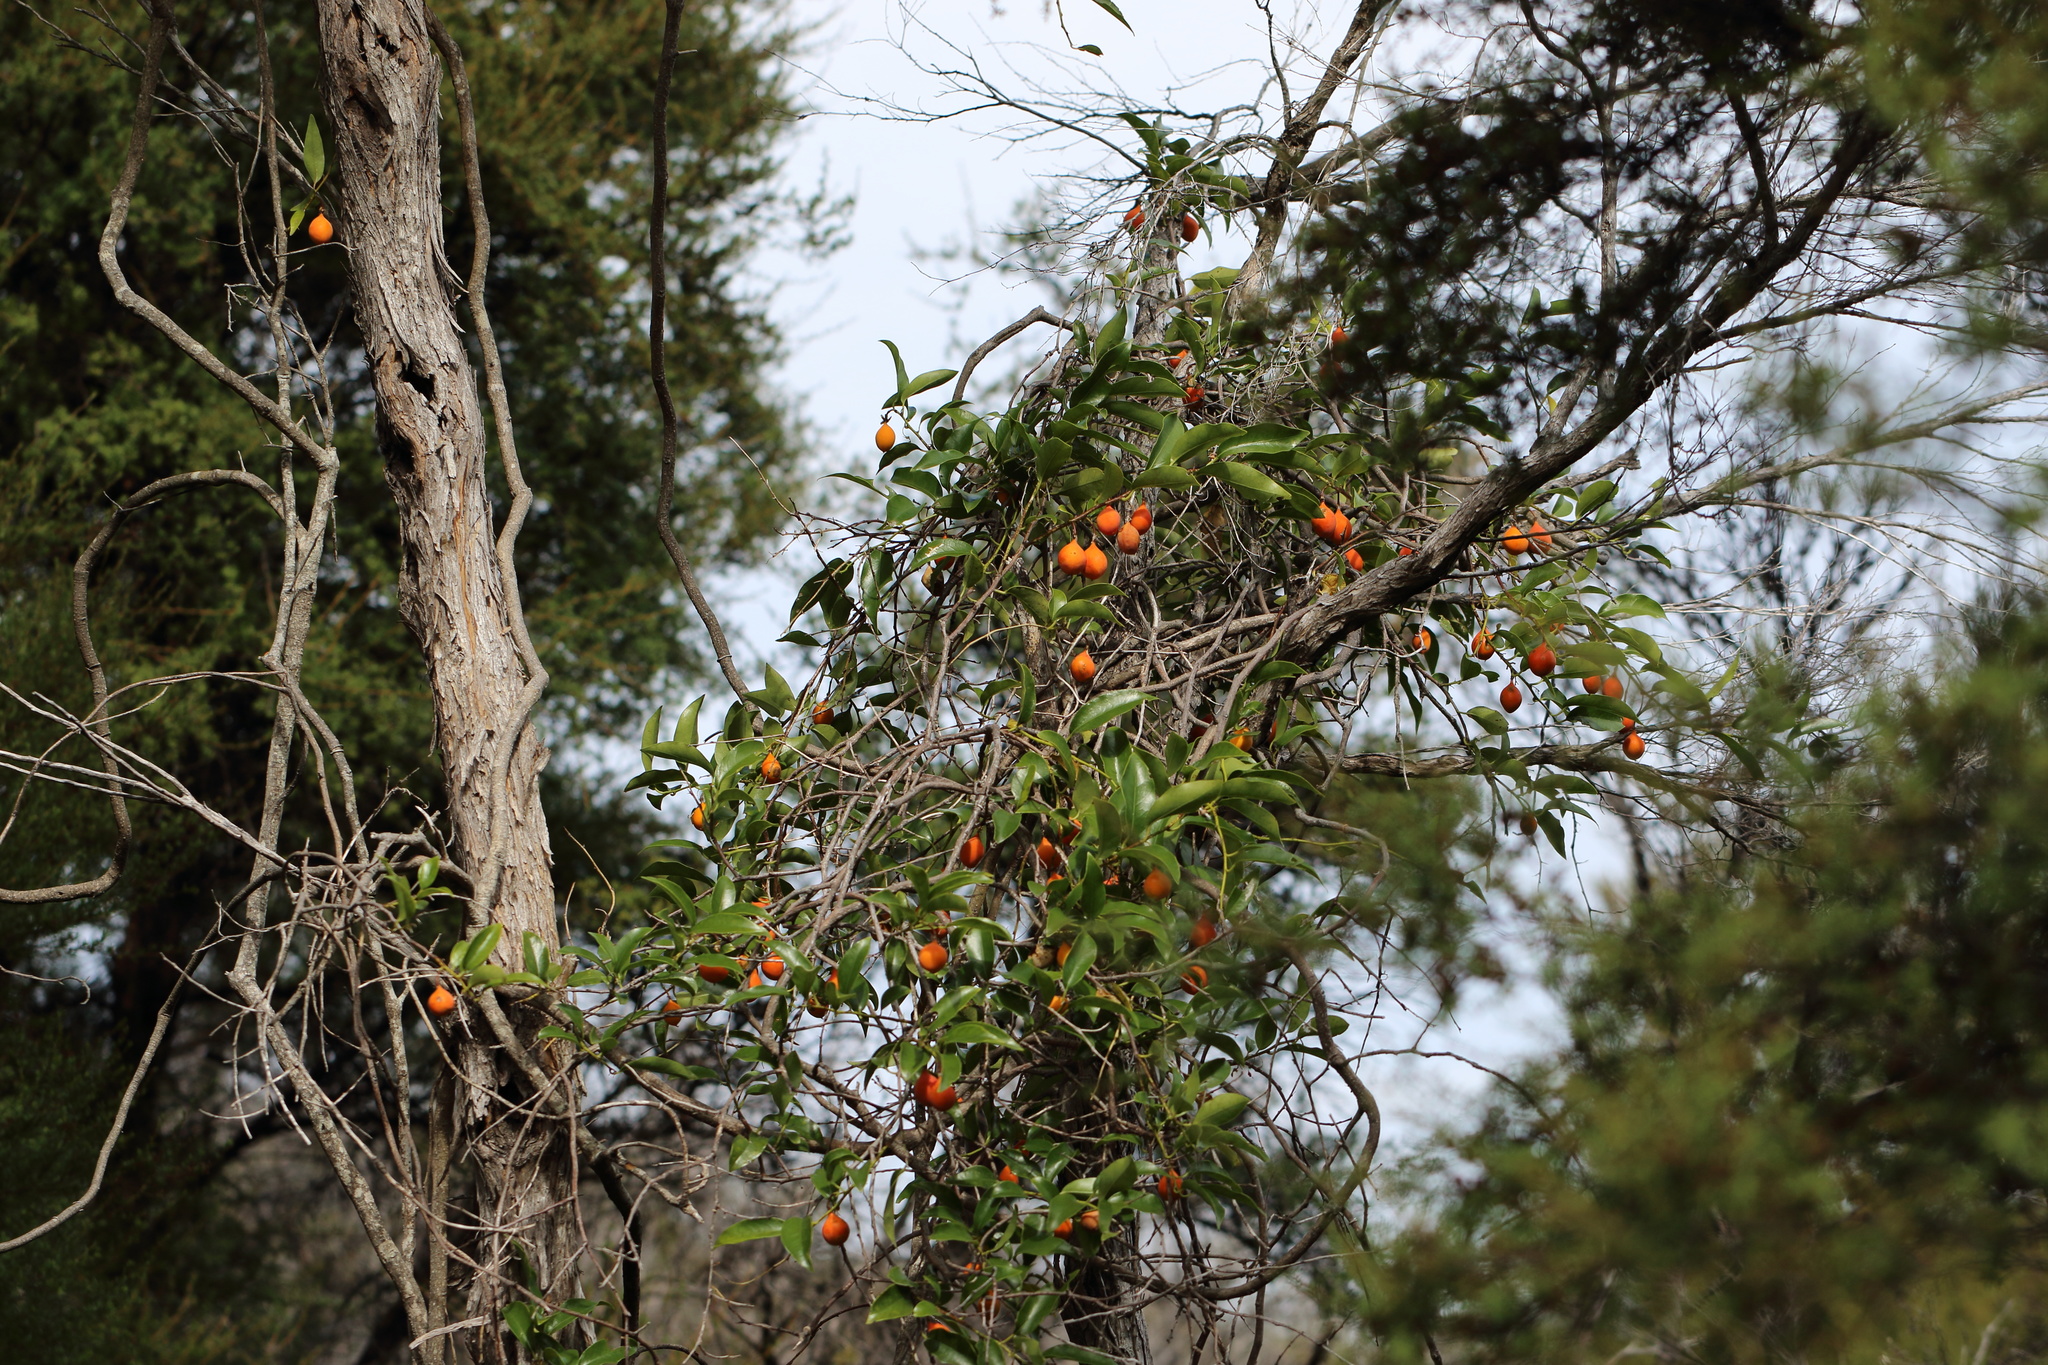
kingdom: Plantae
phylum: Tracheophyta
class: Magnoliopsida
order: Malpighiales
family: Passifloraceae
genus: Passiflora
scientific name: Passiflora tetrandra
